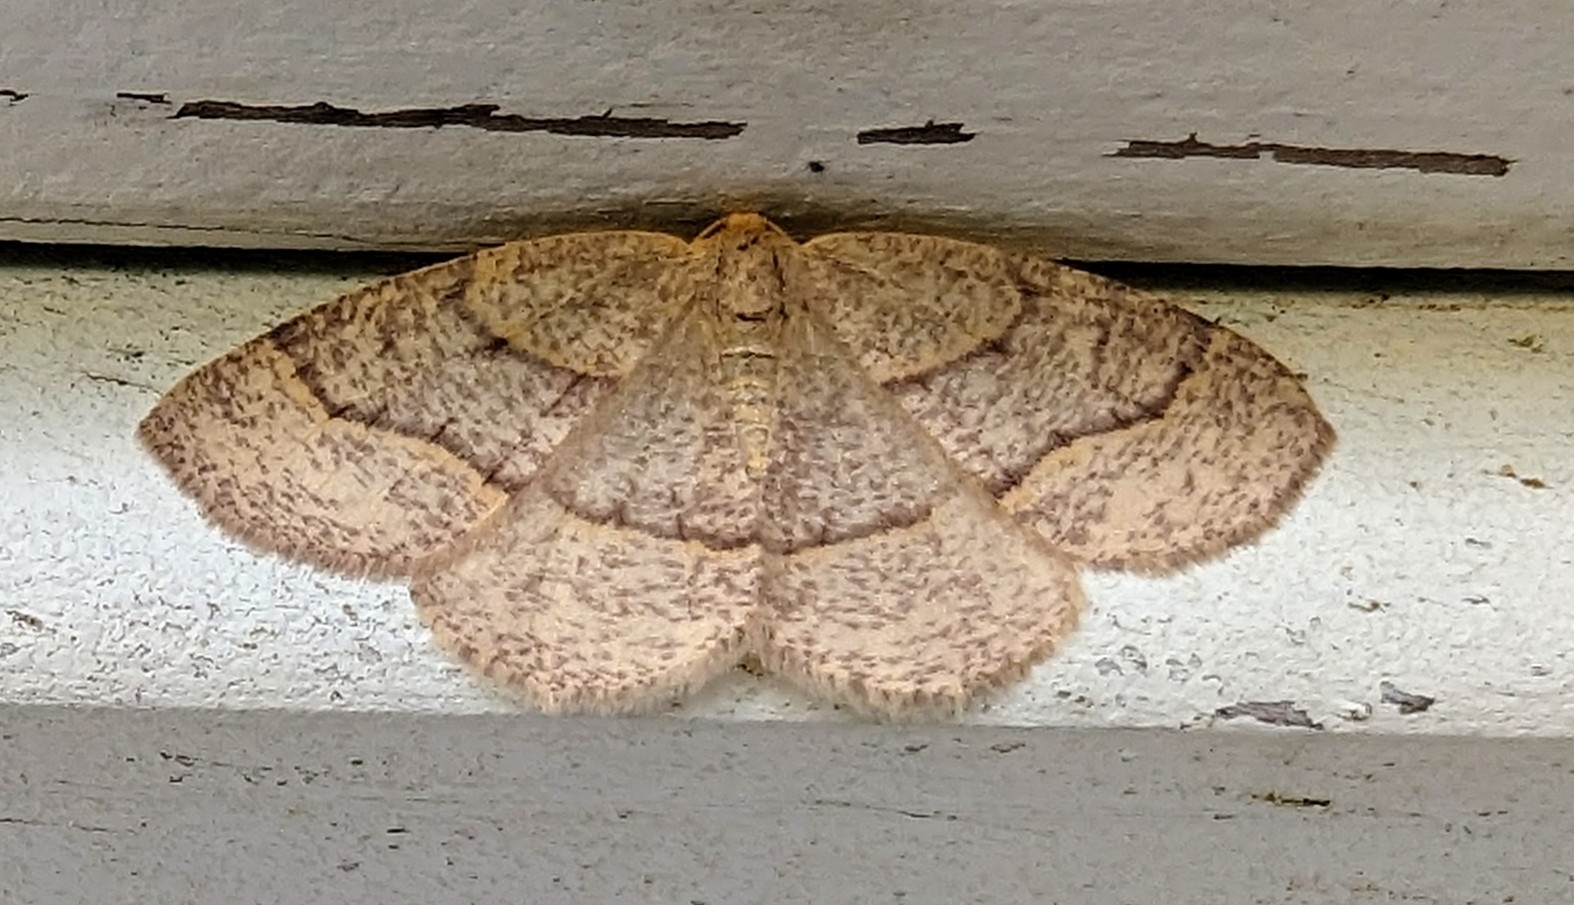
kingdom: Animalia
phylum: Arthropoda
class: Insecta
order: Lepidoptera
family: Geometridae
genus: Lambdina
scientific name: Lambdina fervidaria
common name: Curve-lined looper moth
